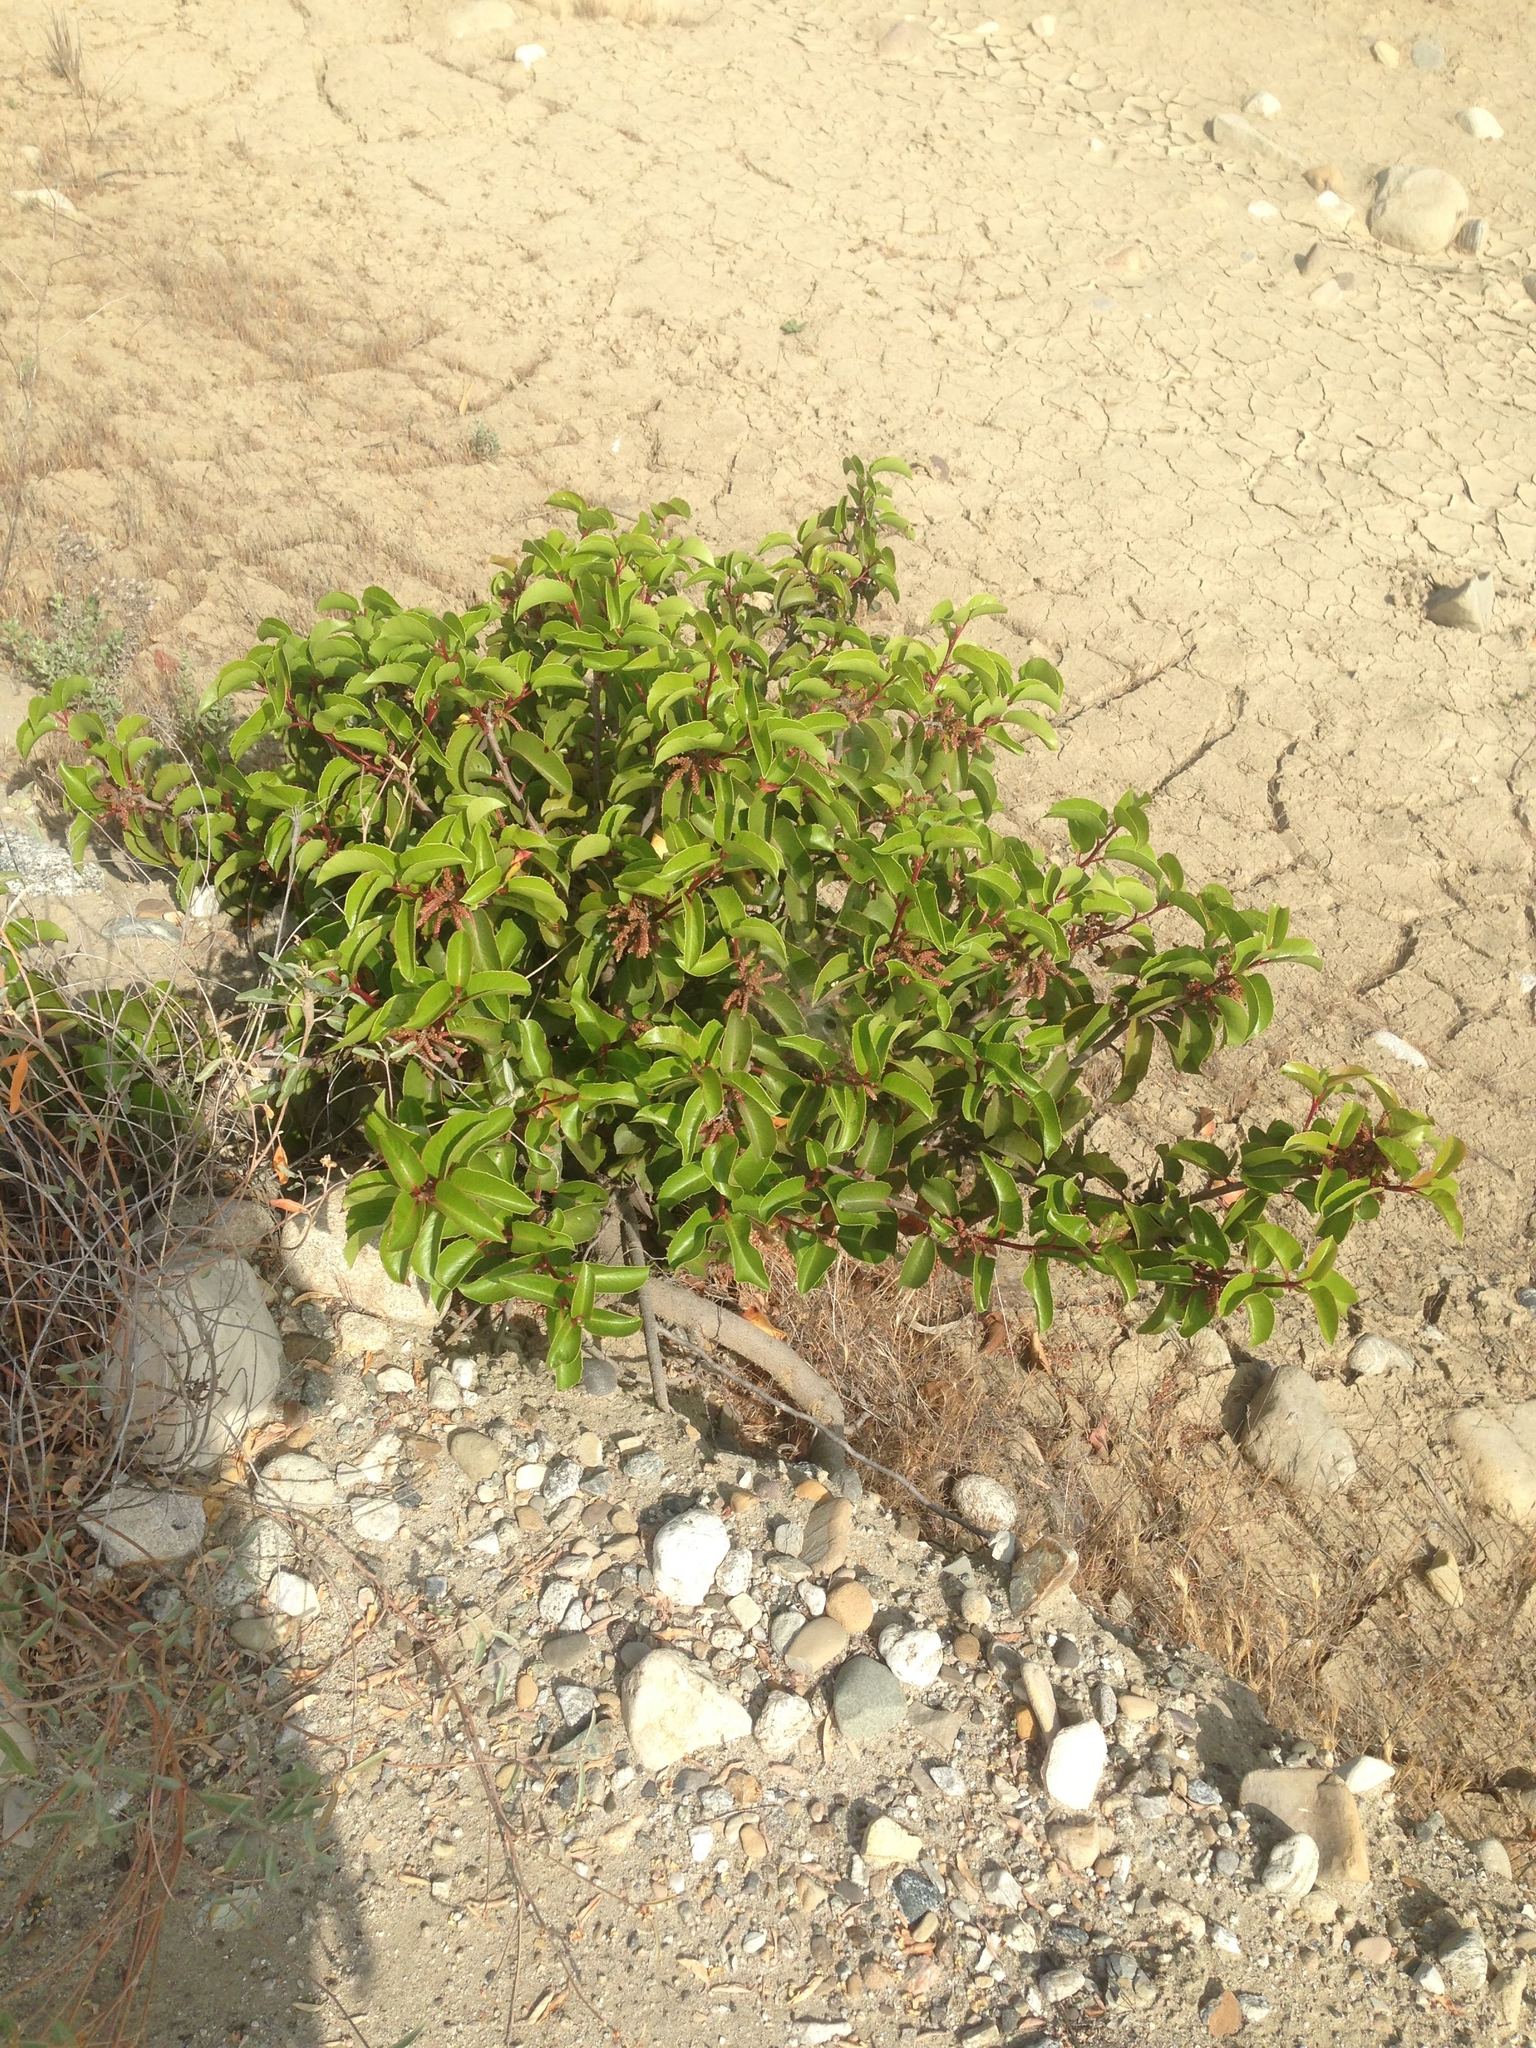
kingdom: Plantae
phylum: Tracheophyta
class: Magnoliopsida
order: Sapindales
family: Anacardiaceae
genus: Rhus
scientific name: Rhus ovata
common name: Sugar sumac
